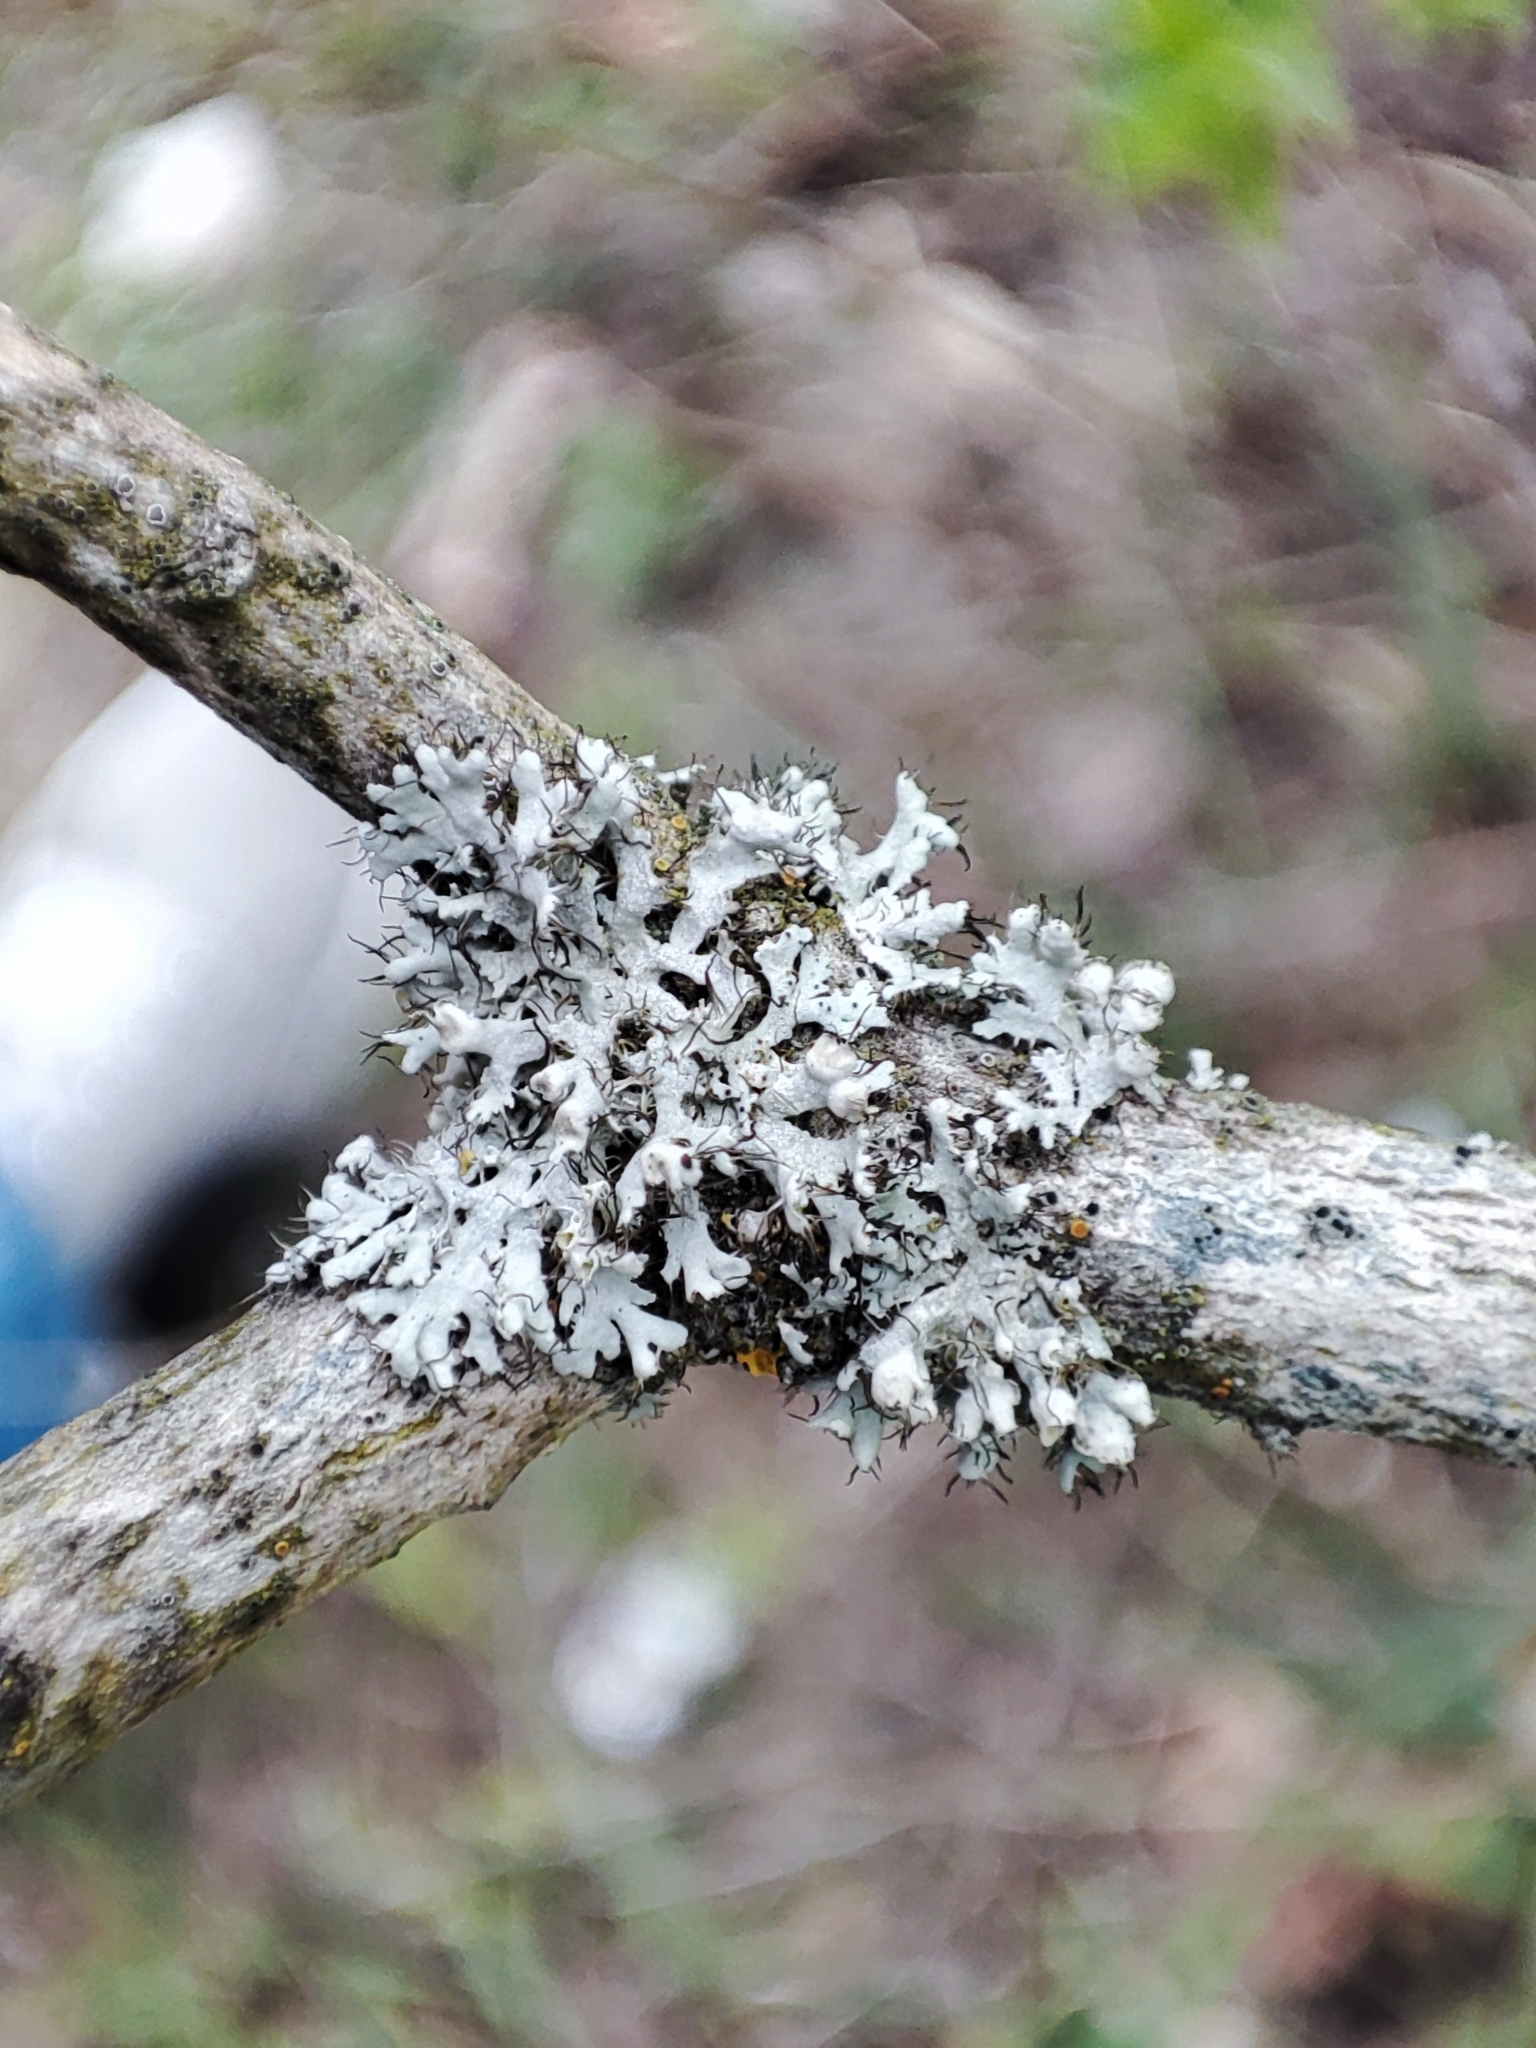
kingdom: Fungi
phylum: Ascomycota
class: Lecanoromycetes
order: Caliciales
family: Physciaceae
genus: Physcia
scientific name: Physcia adscendens
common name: Hooded rosette lichen
